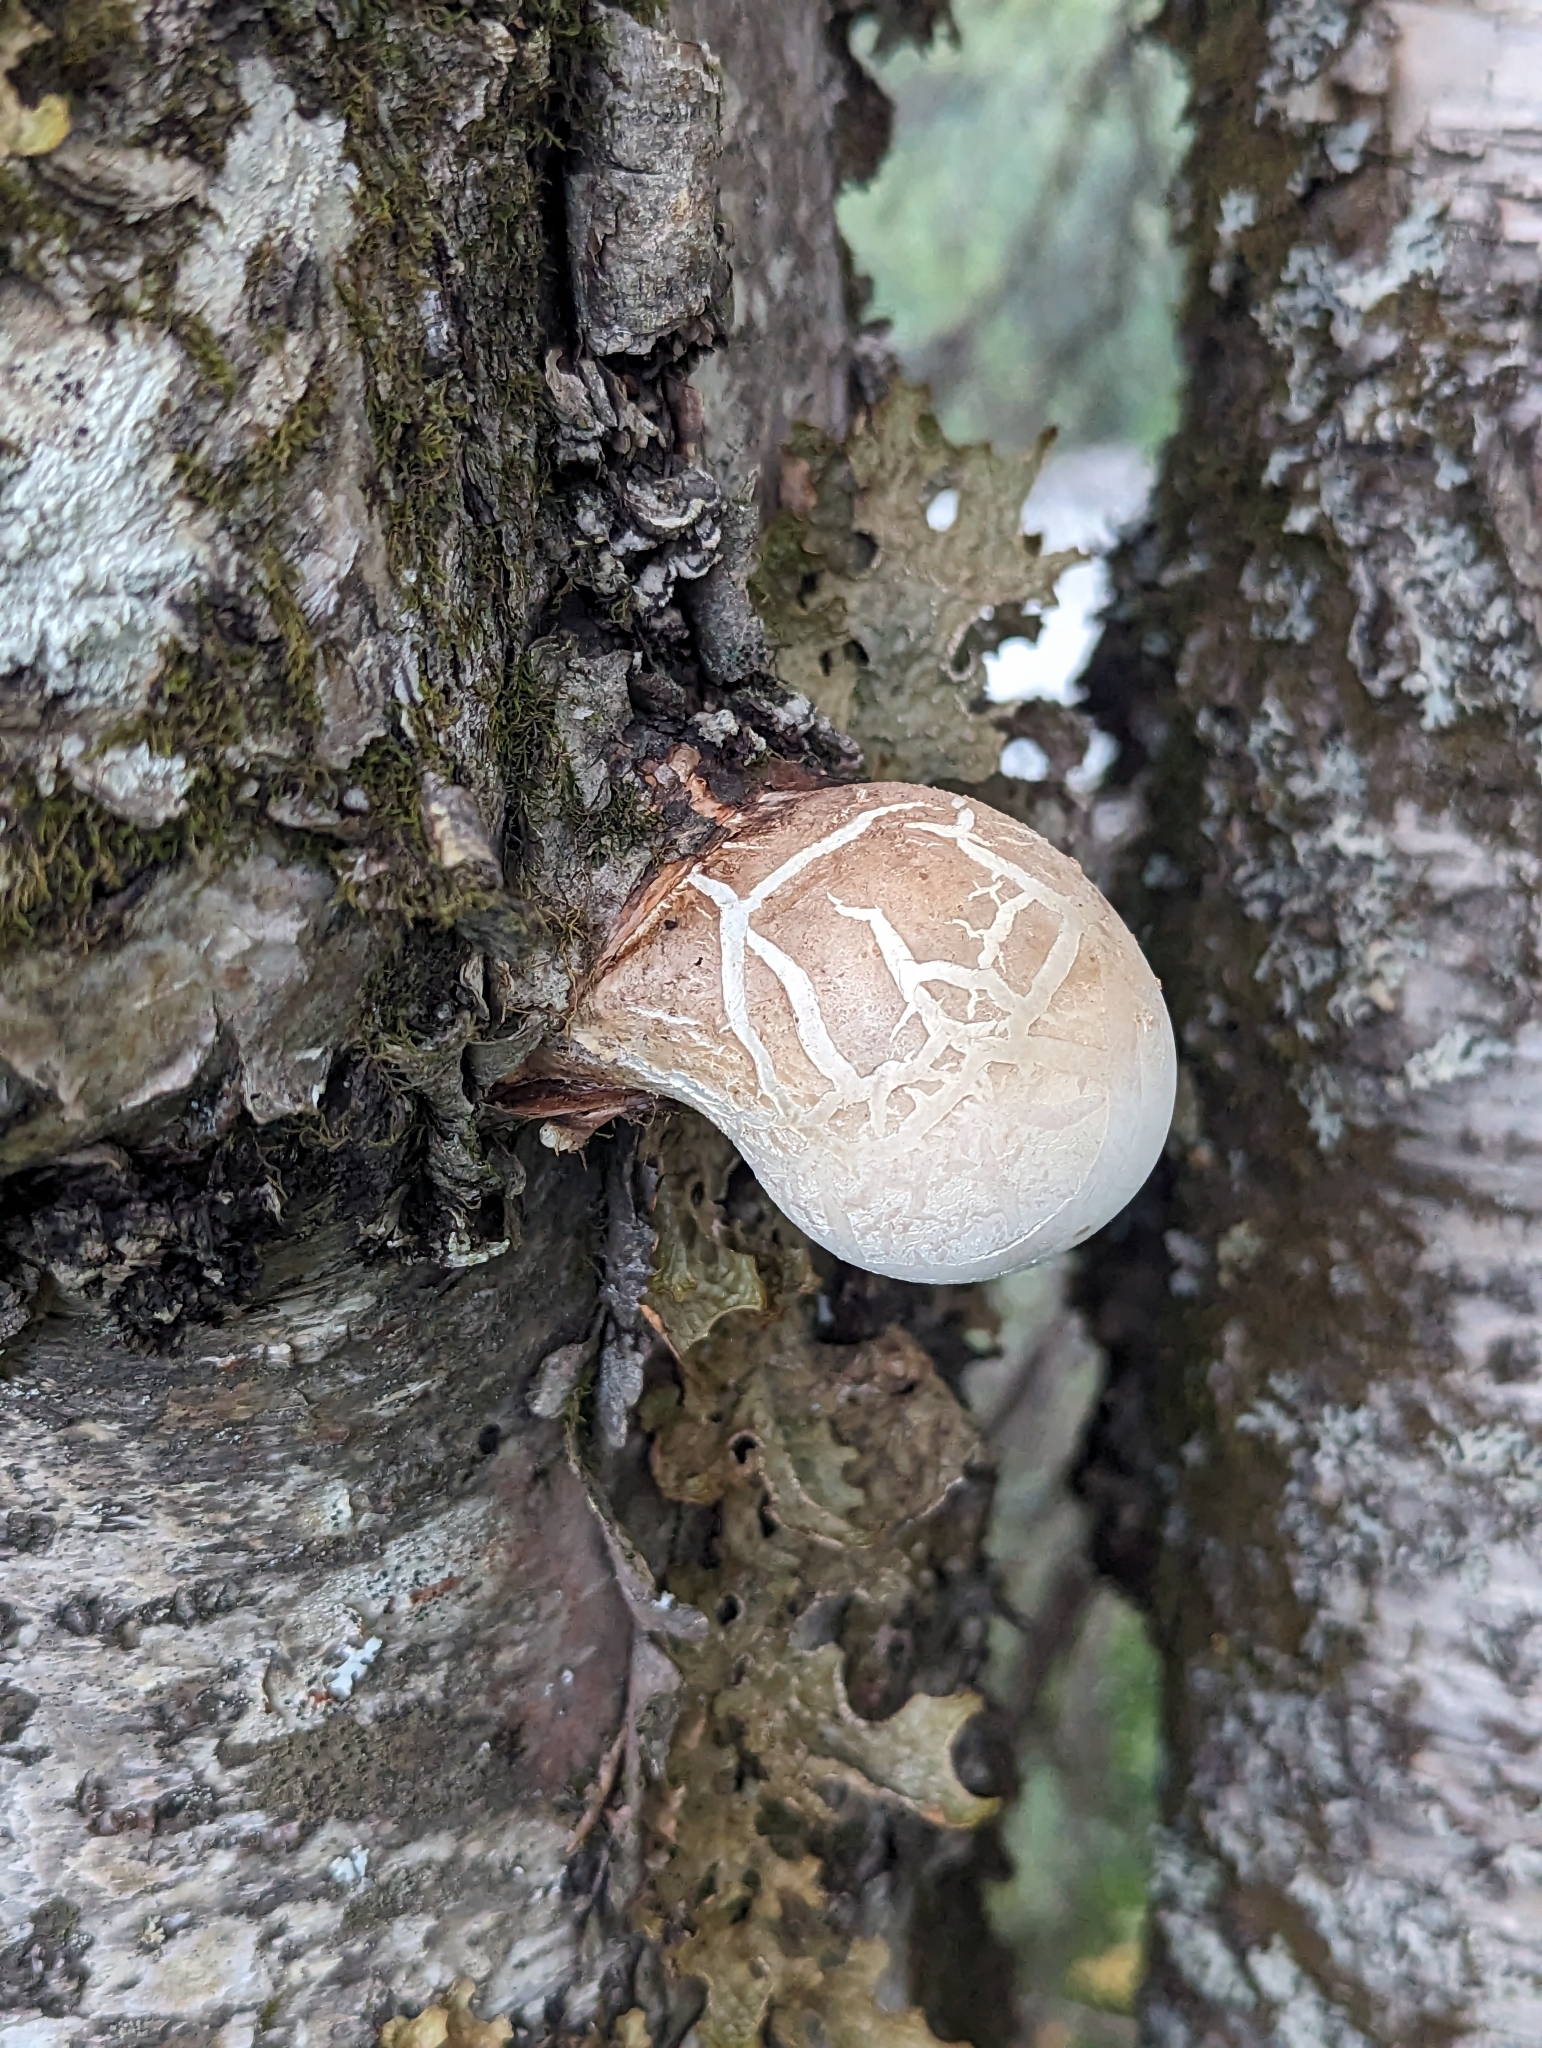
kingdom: Fungi
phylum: Basidiomycota
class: Agaricomycetes
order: Polyporales
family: Fomitopsidaceae
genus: Fomitopsis
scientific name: Fomitopsis betulina
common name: Birch polypore
